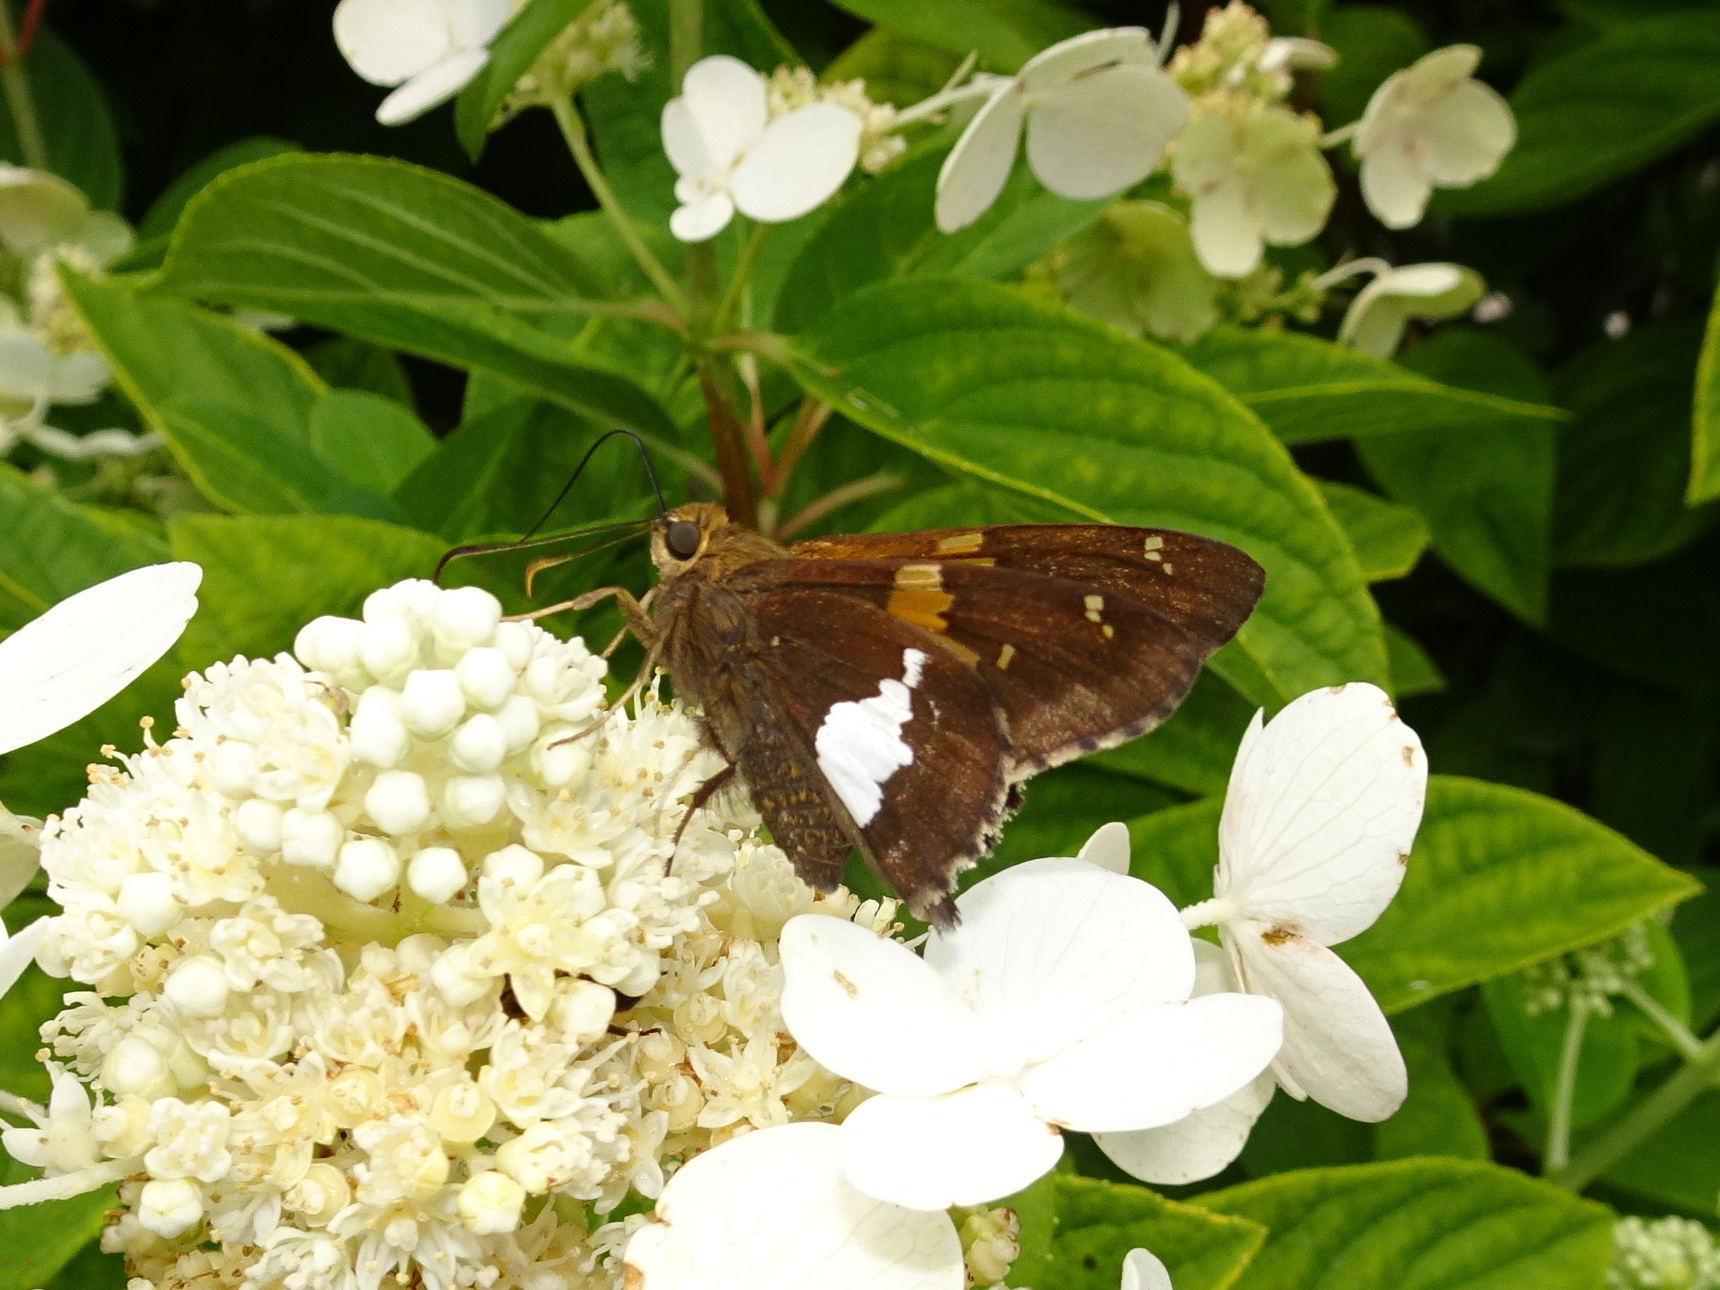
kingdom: Animalia
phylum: Arthropoda
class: Insecta
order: Lepidoptera
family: Hesperiidae
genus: Epargyreus
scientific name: Epargyreus clarus
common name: Silver-spotted skipper
